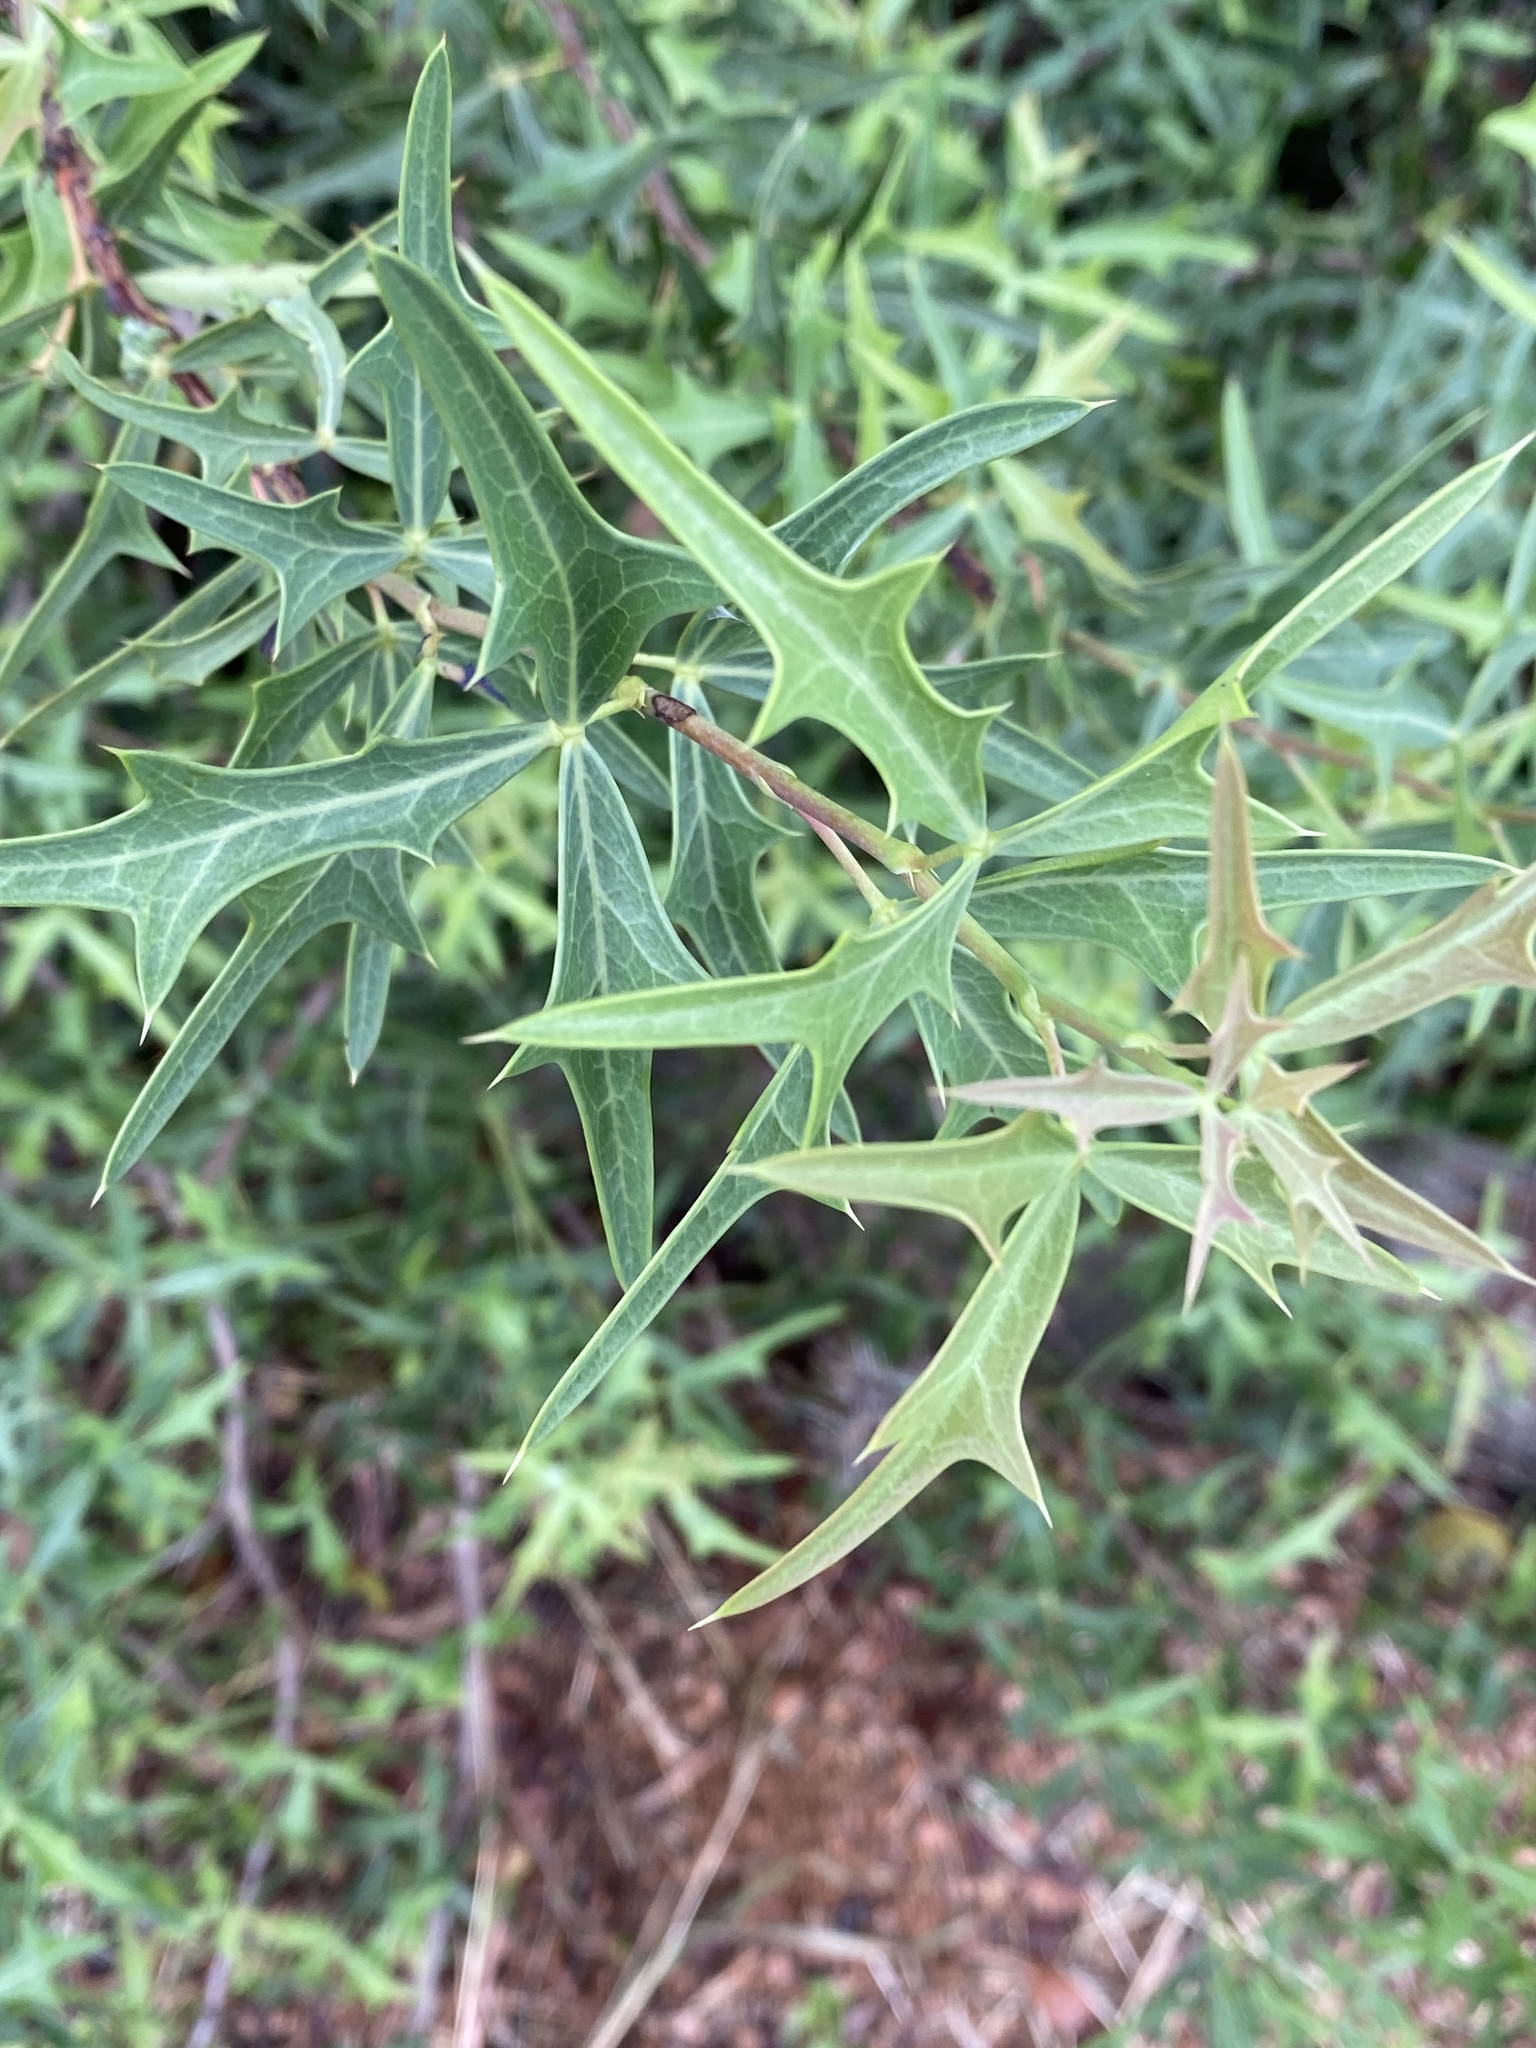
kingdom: Plantae
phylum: Tracheophyta
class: Magnoliopsida
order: Ranunculales
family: Berberidaceae
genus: Alloberberis
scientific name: Alloberberis trifoliolata
